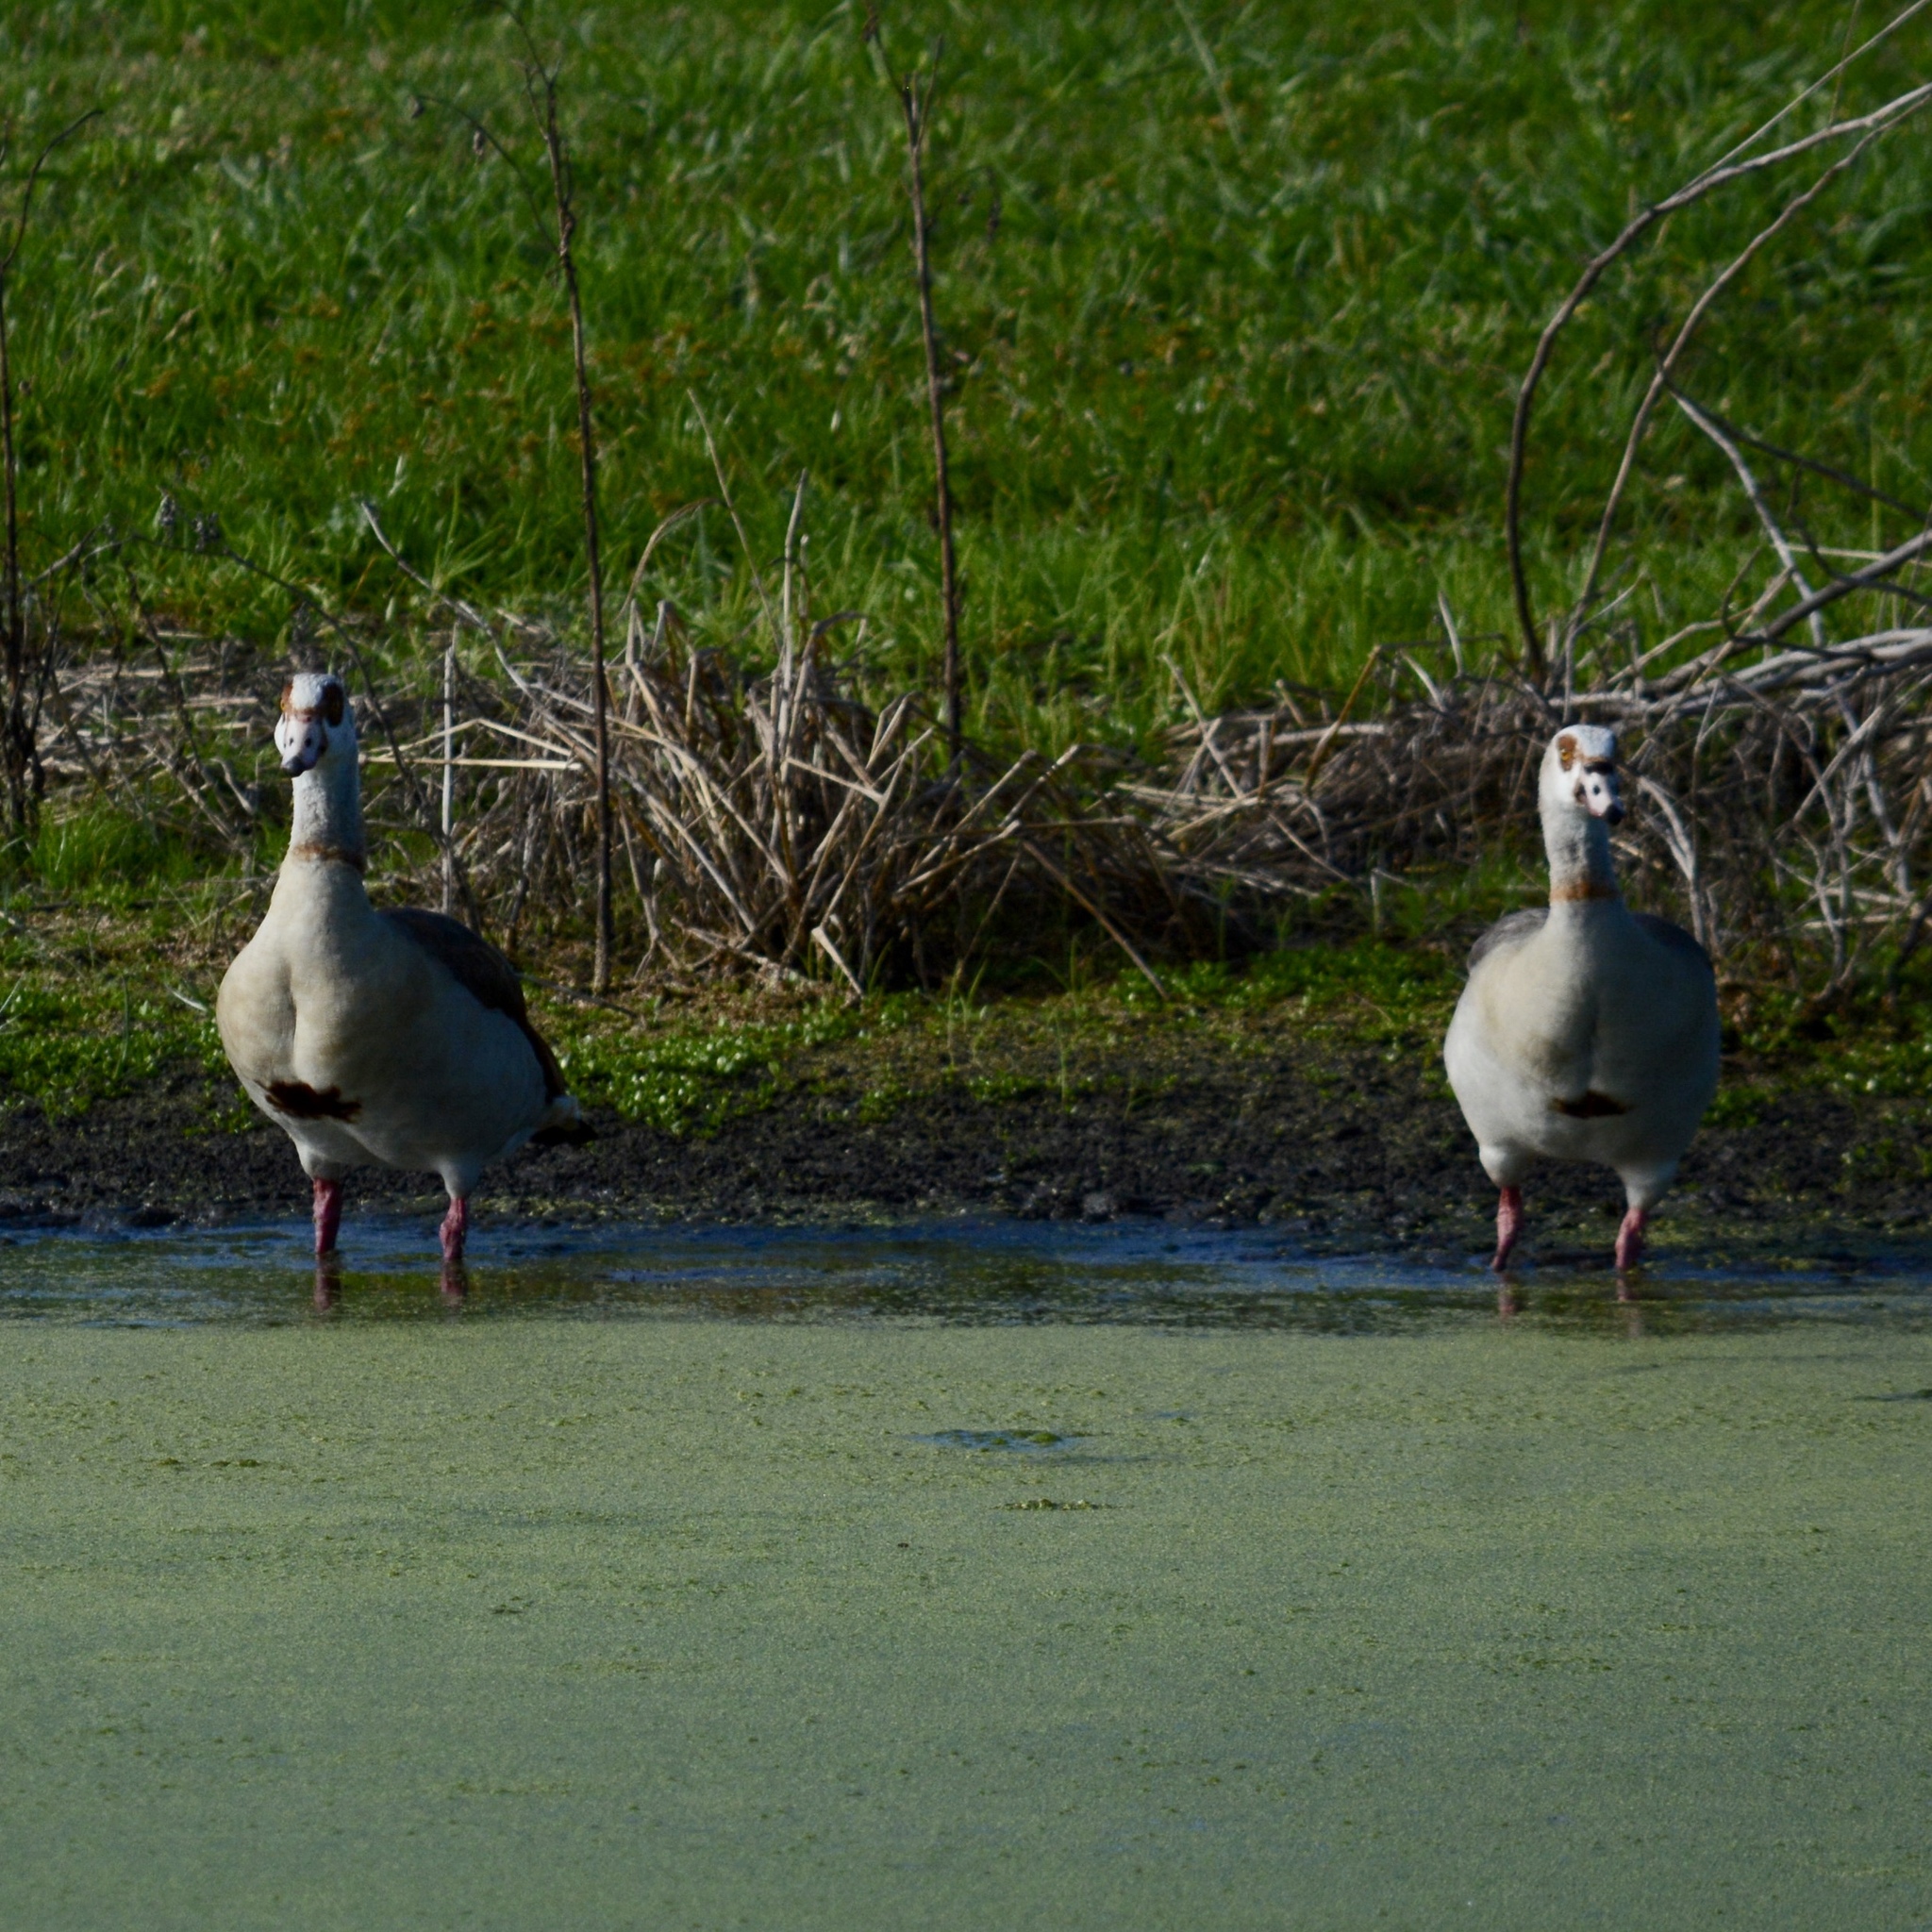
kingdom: Animalia
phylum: Chordata
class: Aves
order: Anseriformes
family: Anatidae
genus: Alopochen
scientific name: Alopochen aegyptiaca
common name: Egyptian goose
